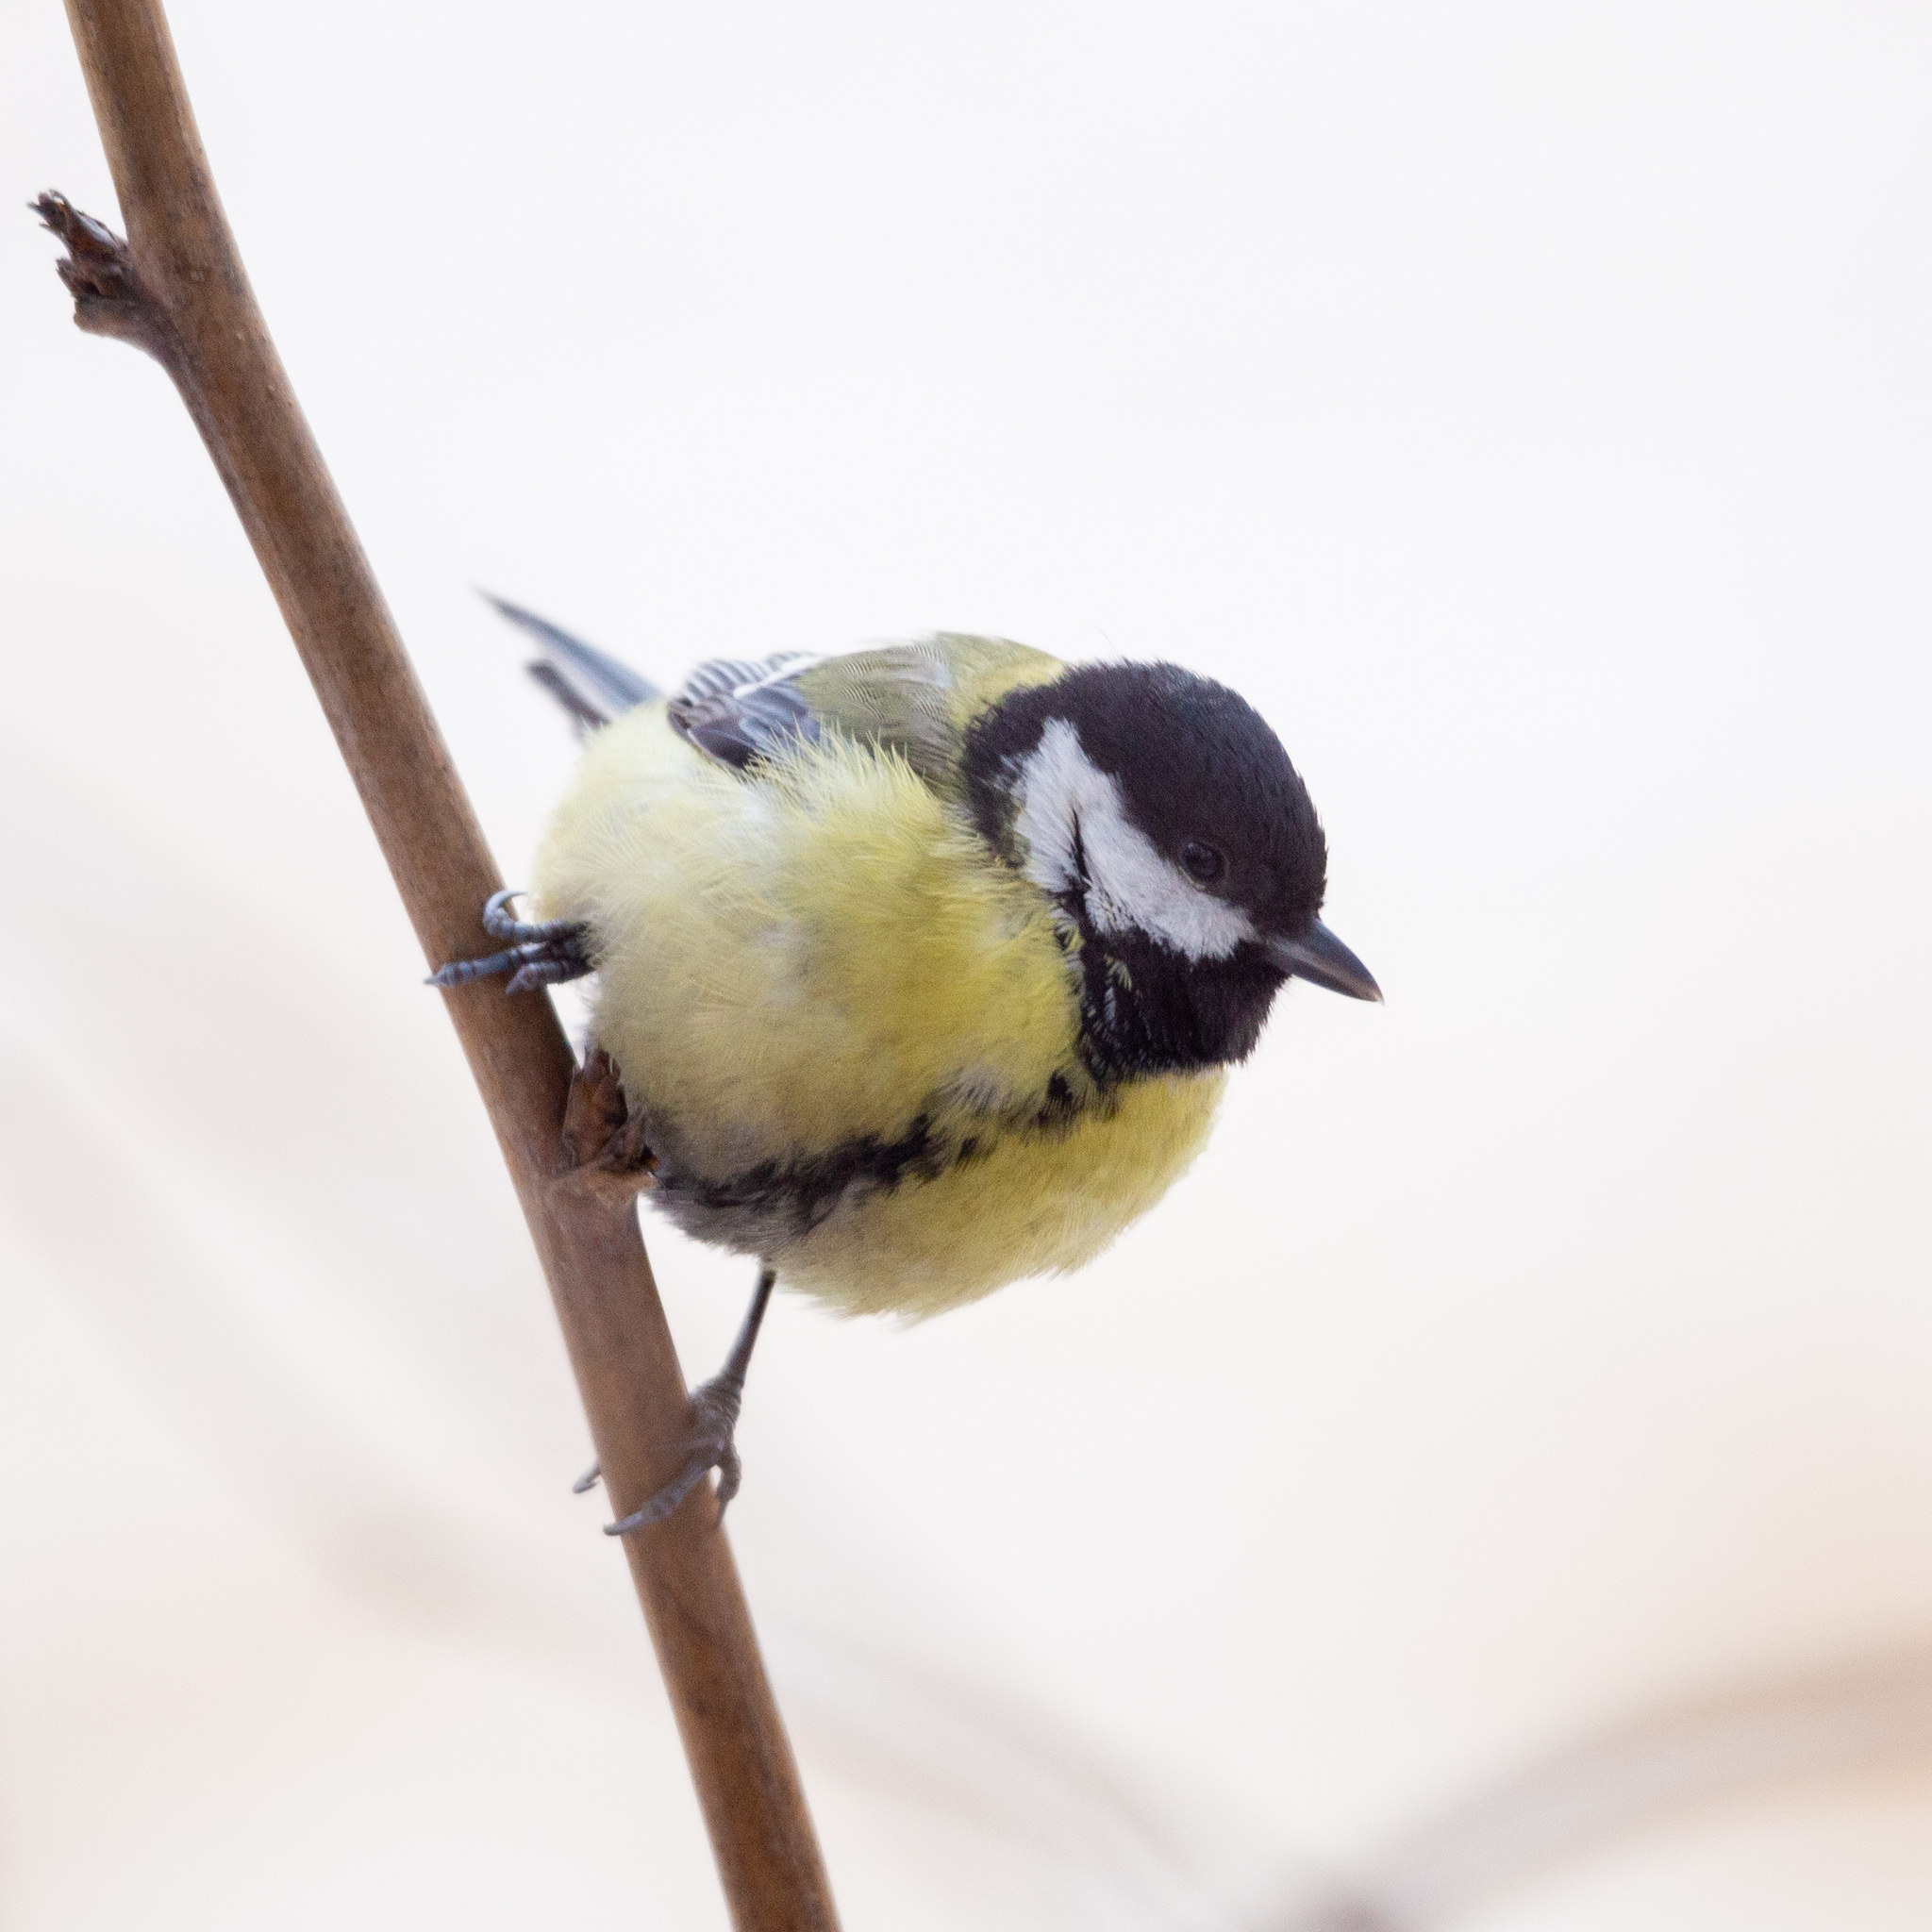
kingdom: Animalia
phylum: Chordata
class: Aves
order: Passeriformes
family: Paridae
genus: Parus
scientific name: Parus major
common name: Great tit
